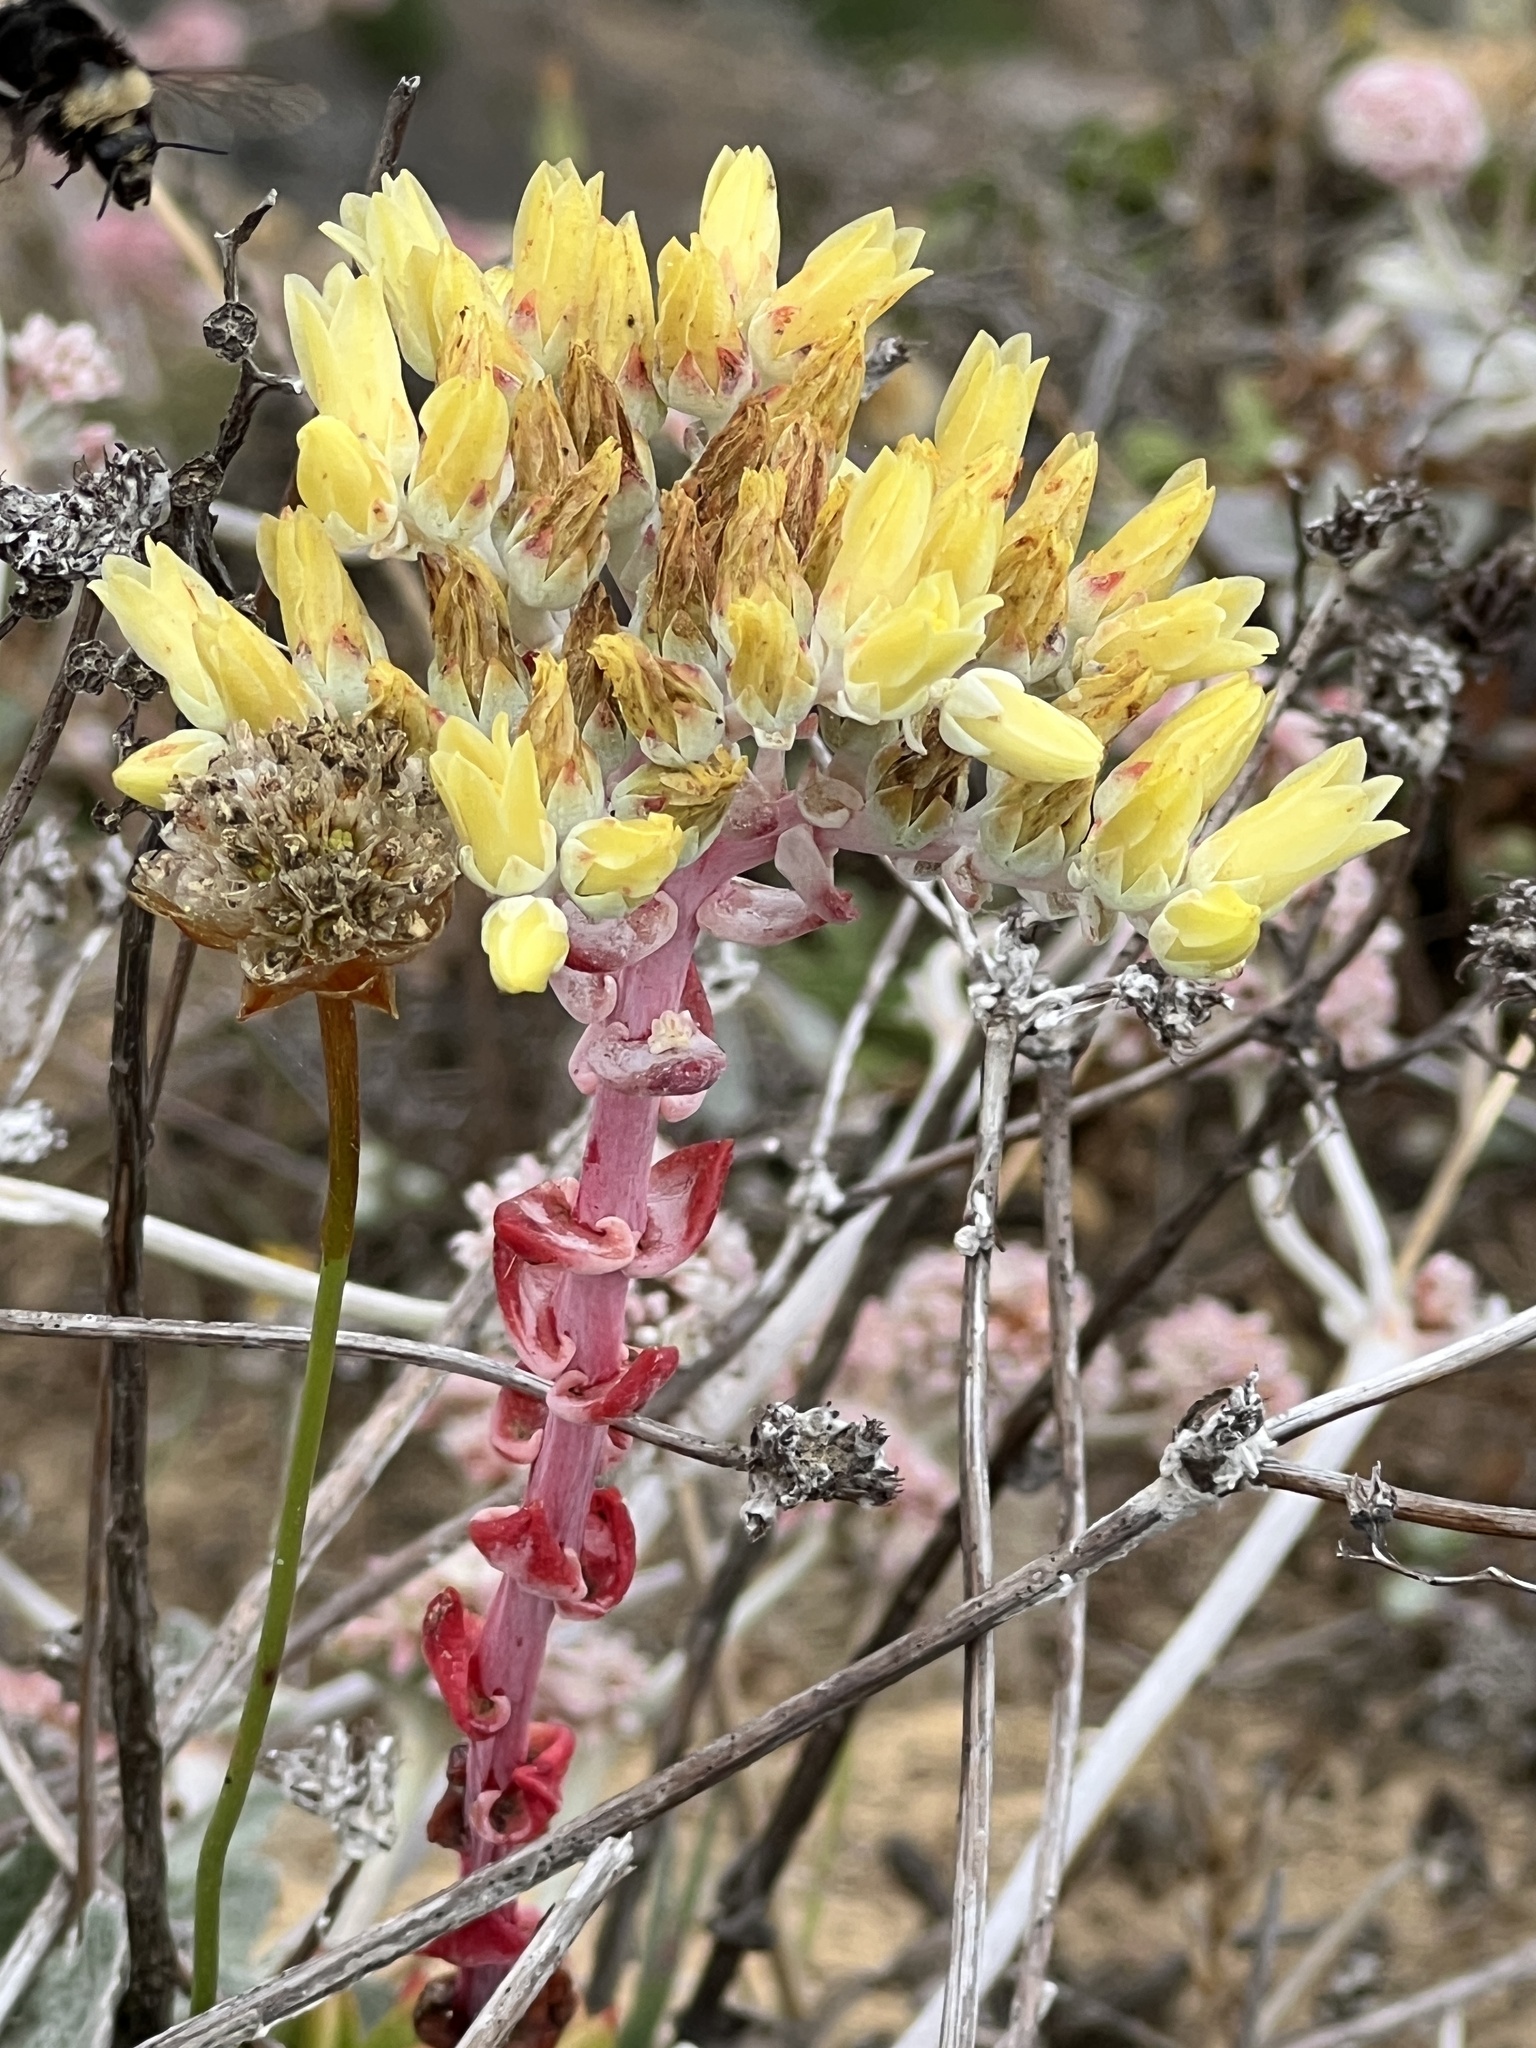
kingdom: Plantae
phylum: Tracheophyta
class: Magnoliopsida
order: Saxifragales
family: Crassulaceae
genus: Dudleya
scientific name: Dudleya farinosa
